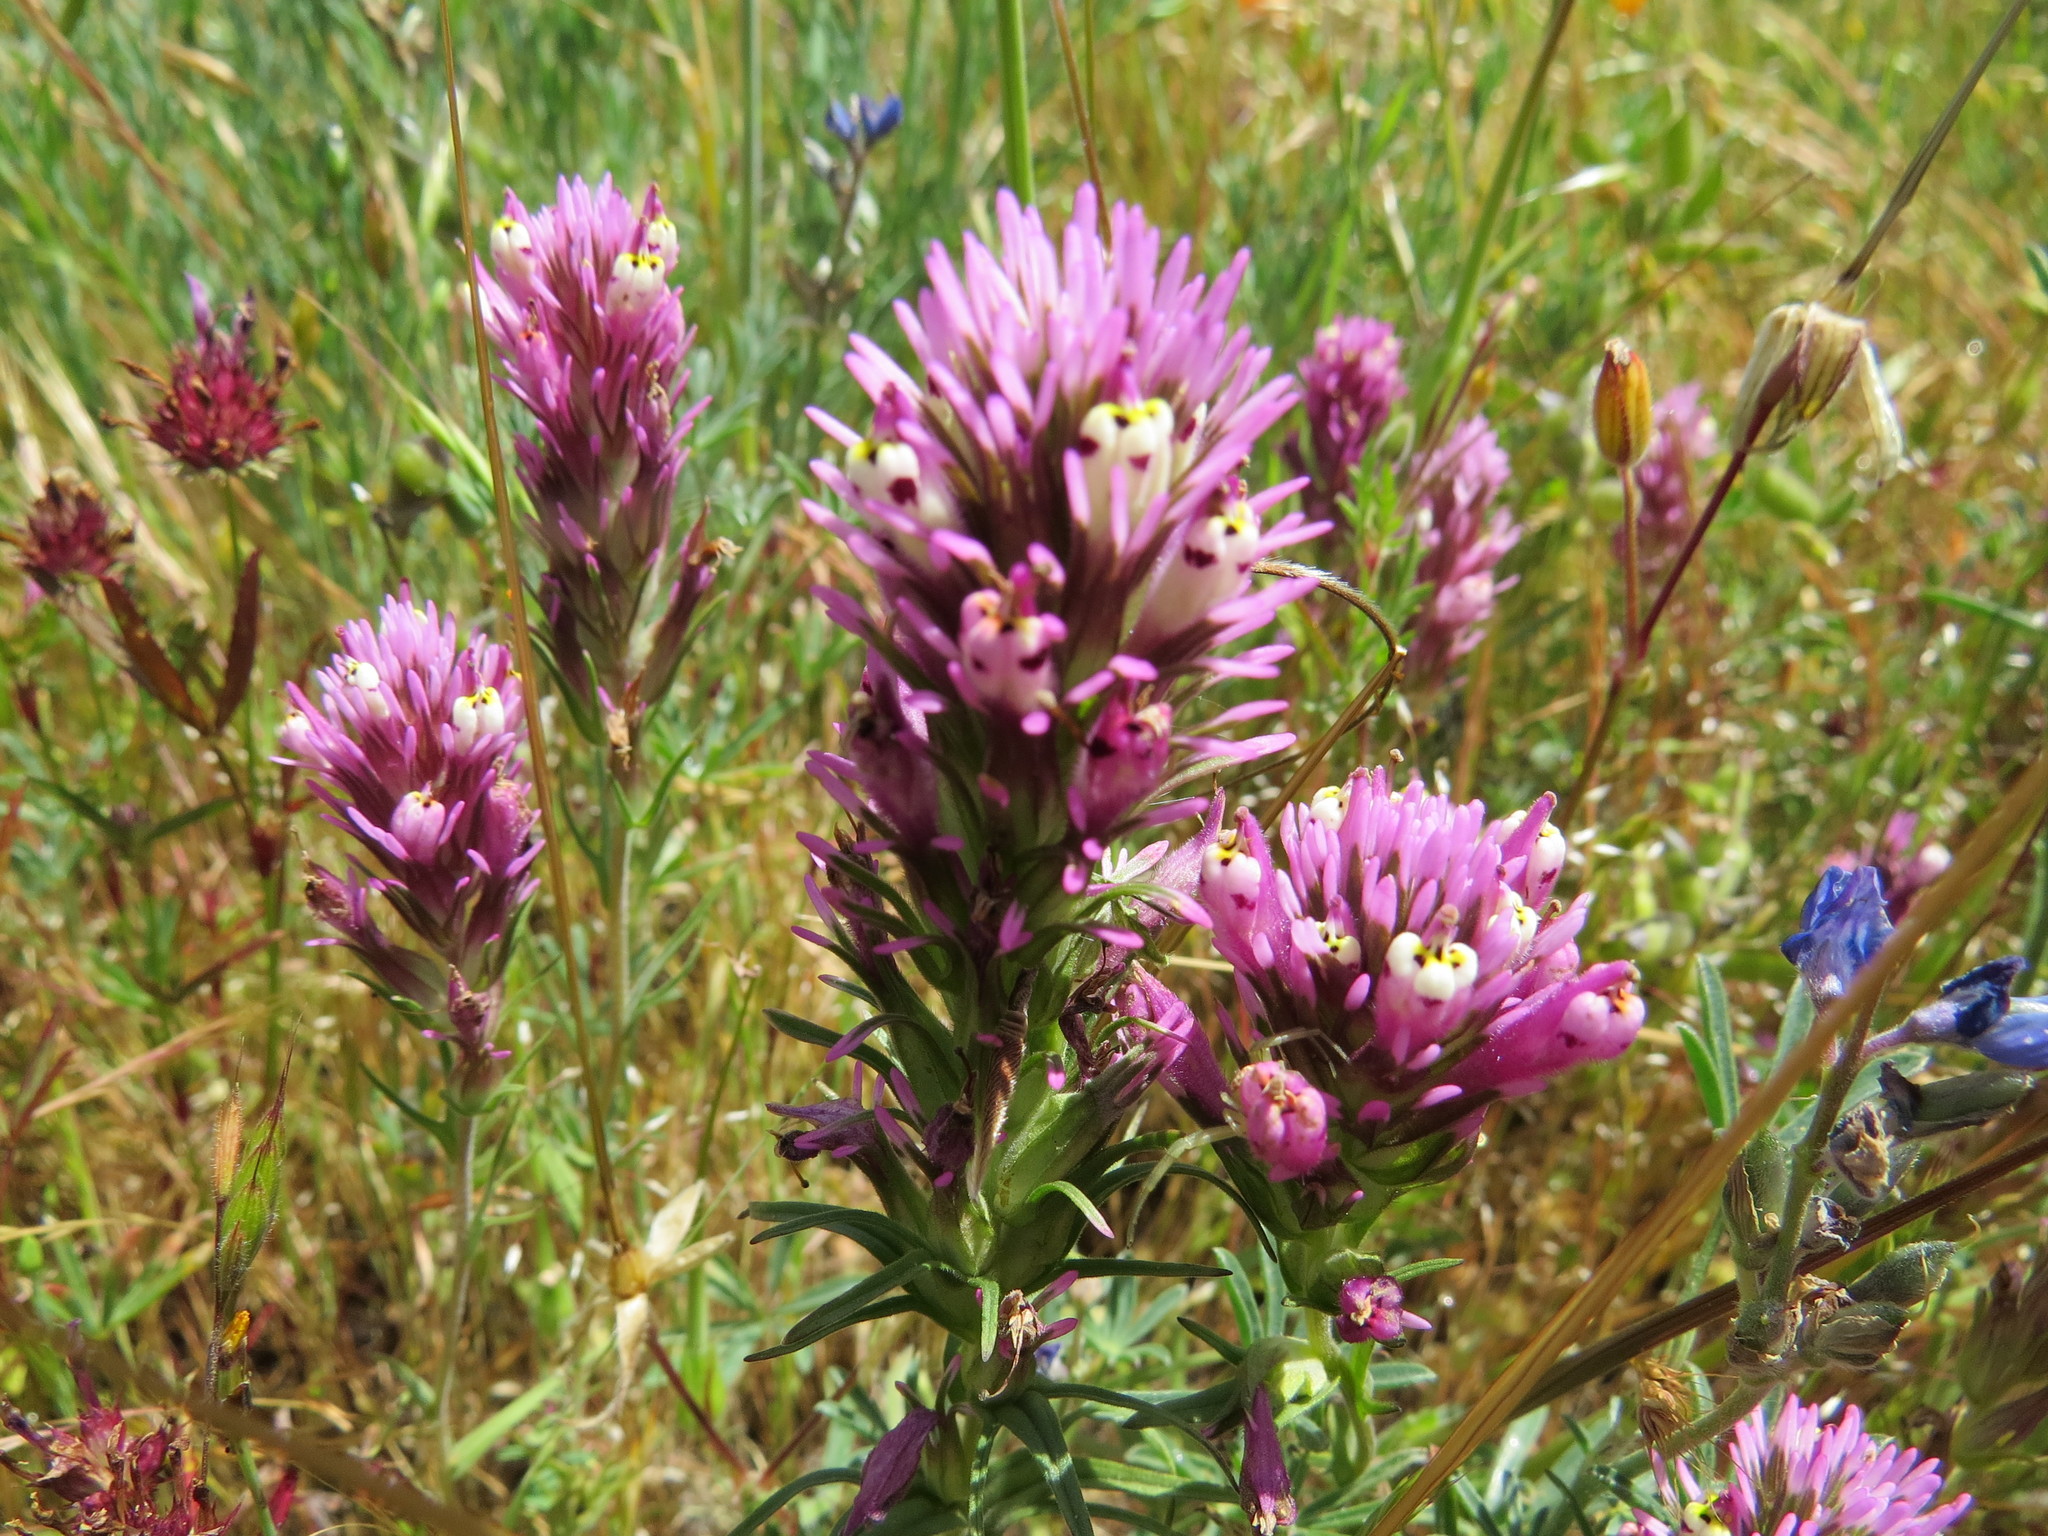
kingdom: Plantae
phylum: Tracheophyta
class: Magnoliopsida
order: Lamiales
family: Orobanchaceae
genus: Castilleja
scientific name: Castilleja densiflora
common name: Dense-flower indian paintbrush
